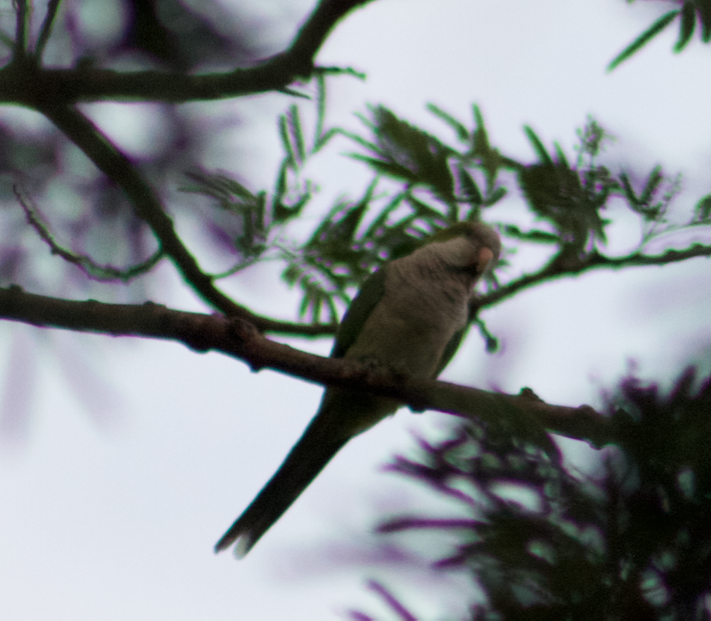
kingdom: Animalia
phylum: Chordata
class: Aves
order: Psittaciformes
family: Psittacidae
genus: Myiopsitta
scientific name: Myiopsitta monachus
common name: Monk parakeet
